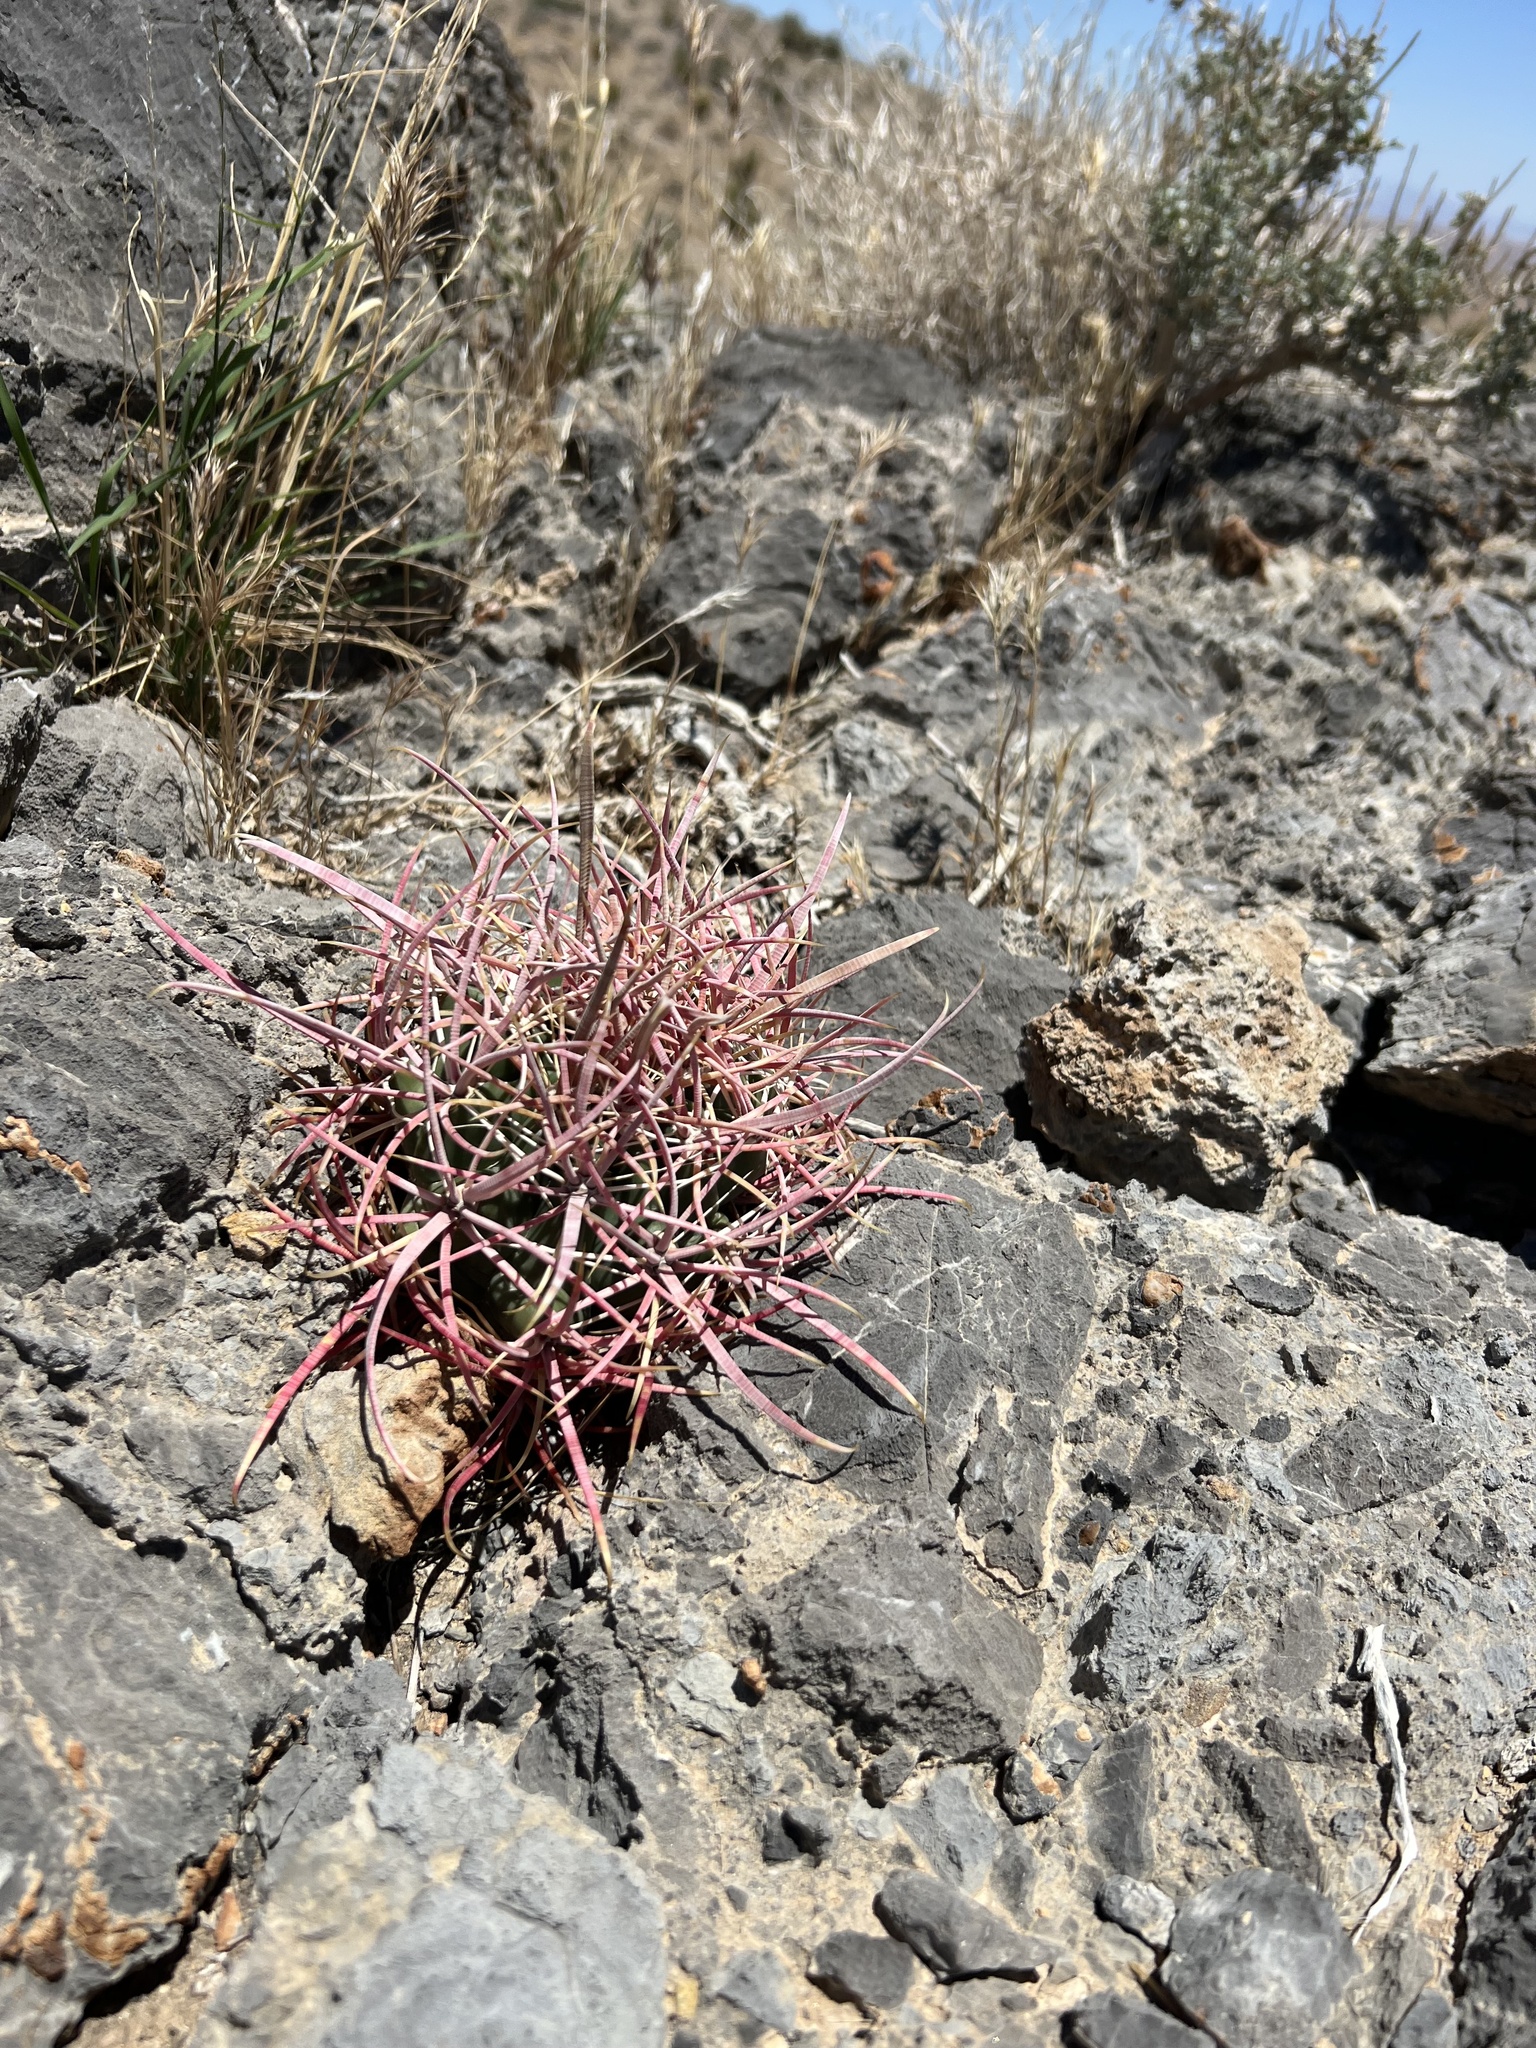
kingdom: Plantae
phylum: Tracheophyta
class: Magnoliopsida
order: Caryophyllales
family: Cactaceae
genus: Ferocactus
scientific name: Ferocactus cylindraceus
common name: California barrel cactus
